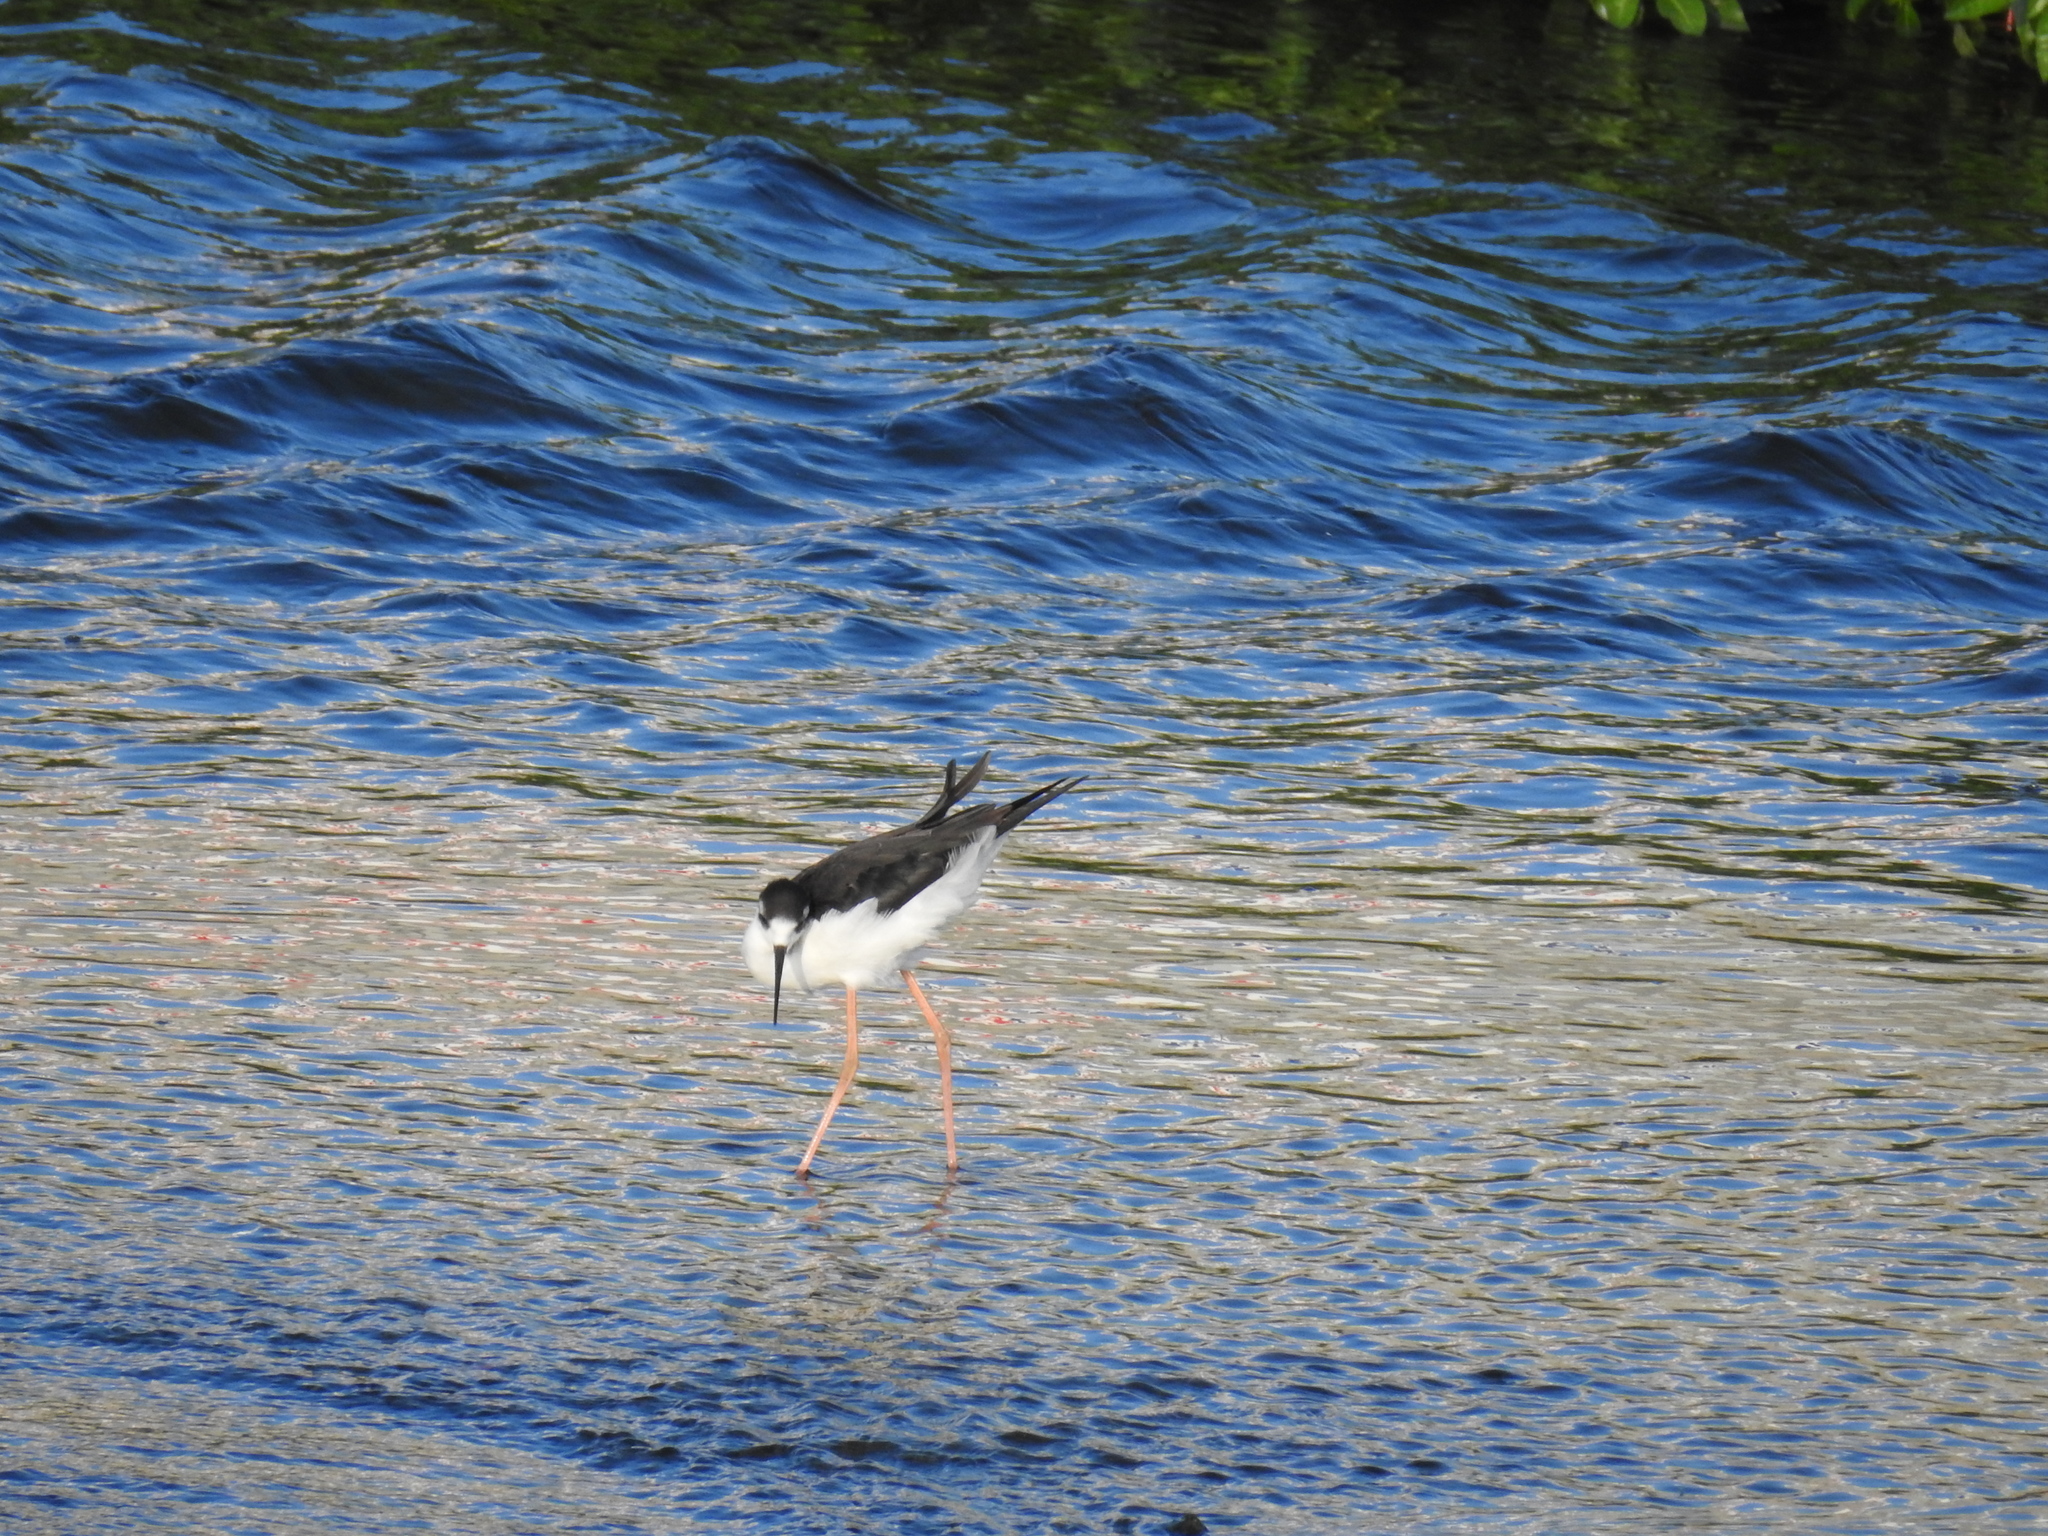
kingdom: Animalia
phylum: Chordata
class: Aves
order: Charadriiformes
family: Recurvirostridae
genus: Himantopus
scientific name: Himantopus mexicanus
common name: Black-necked stilt
